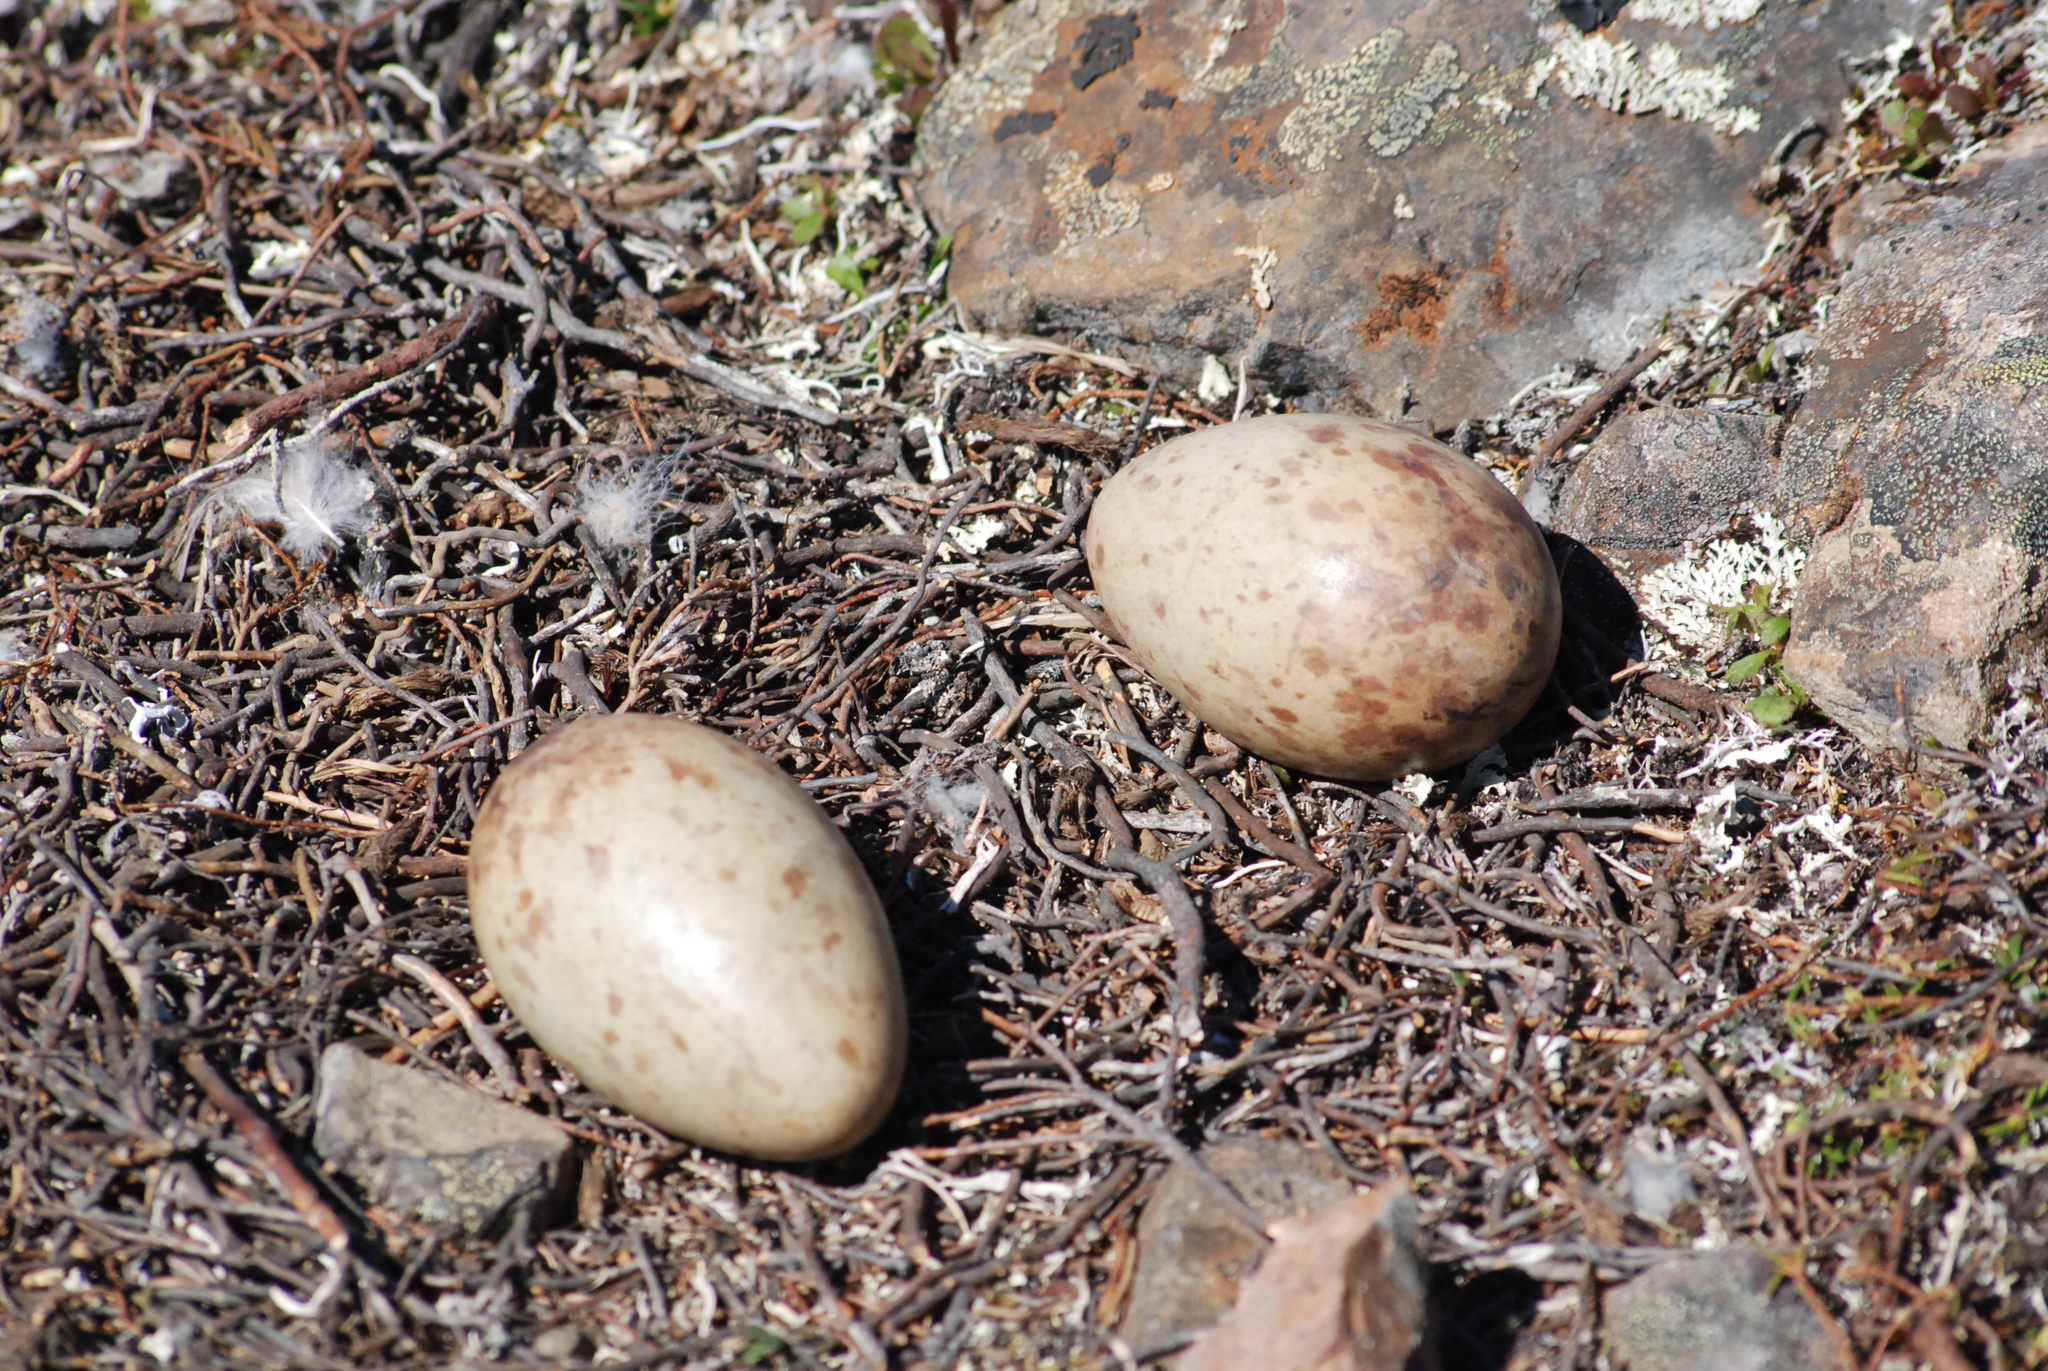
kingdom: Animalia
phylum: Chordata
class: Aves
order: Gruiformes
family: Gruidae
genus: Grus
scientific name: Grus canadensis
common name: Sandhill crane
